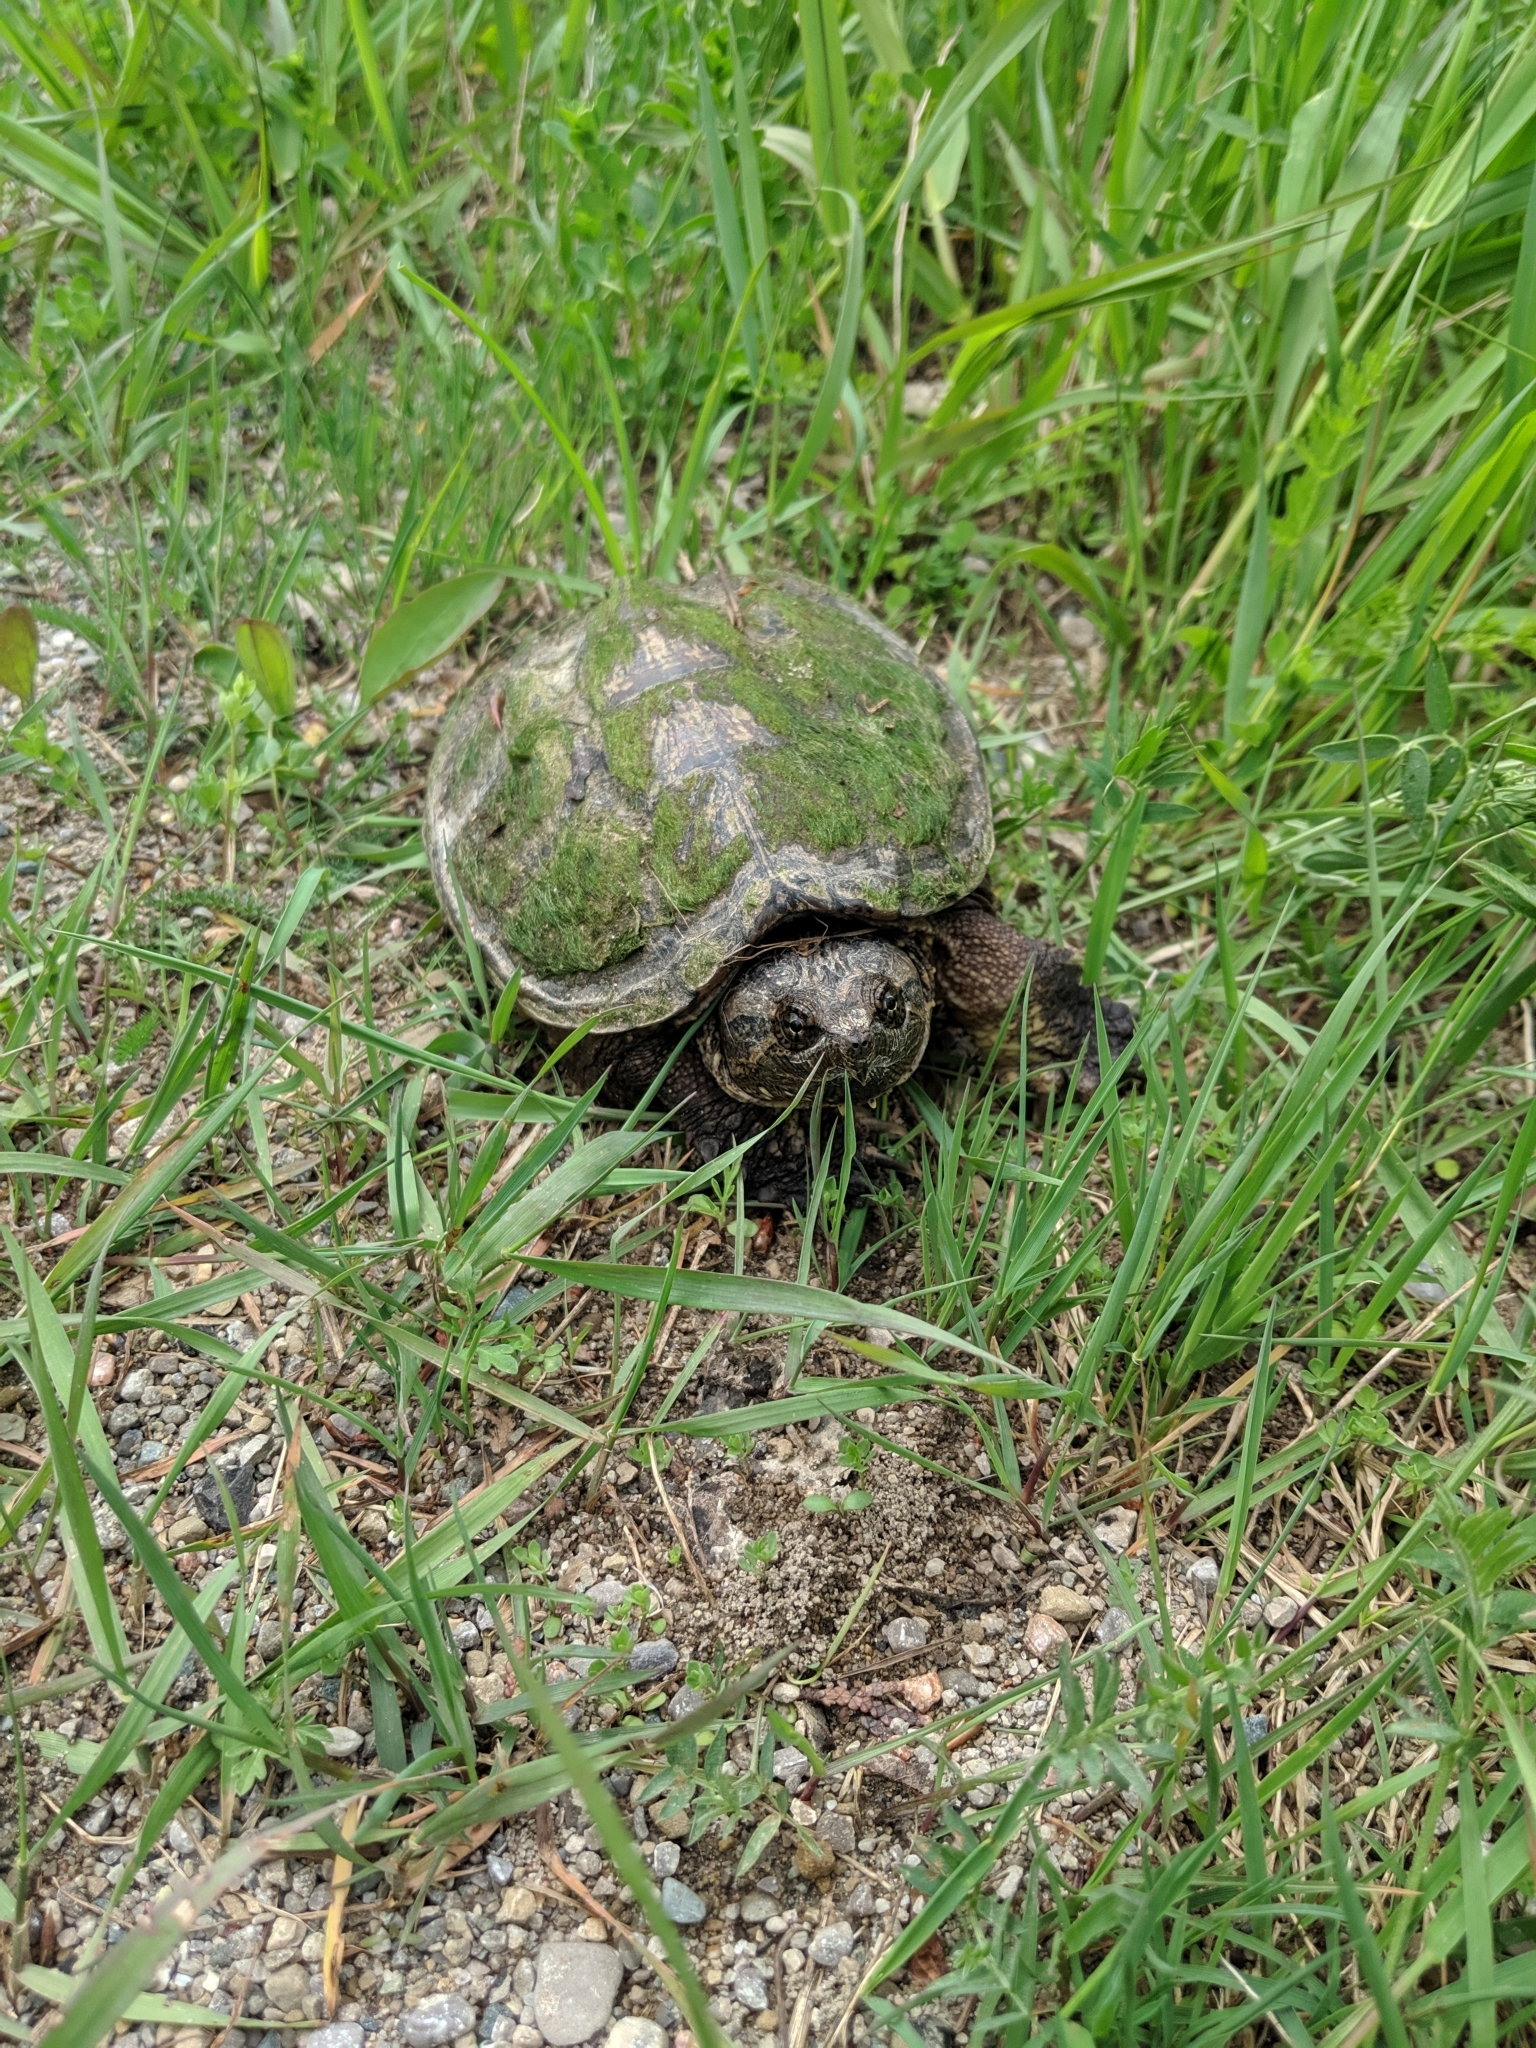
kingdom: Animalia
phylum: Chordata
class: Testudines
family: Chelydridae
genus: Chelydra
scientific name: Chelydra serpentina
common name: Common snapping turtle
